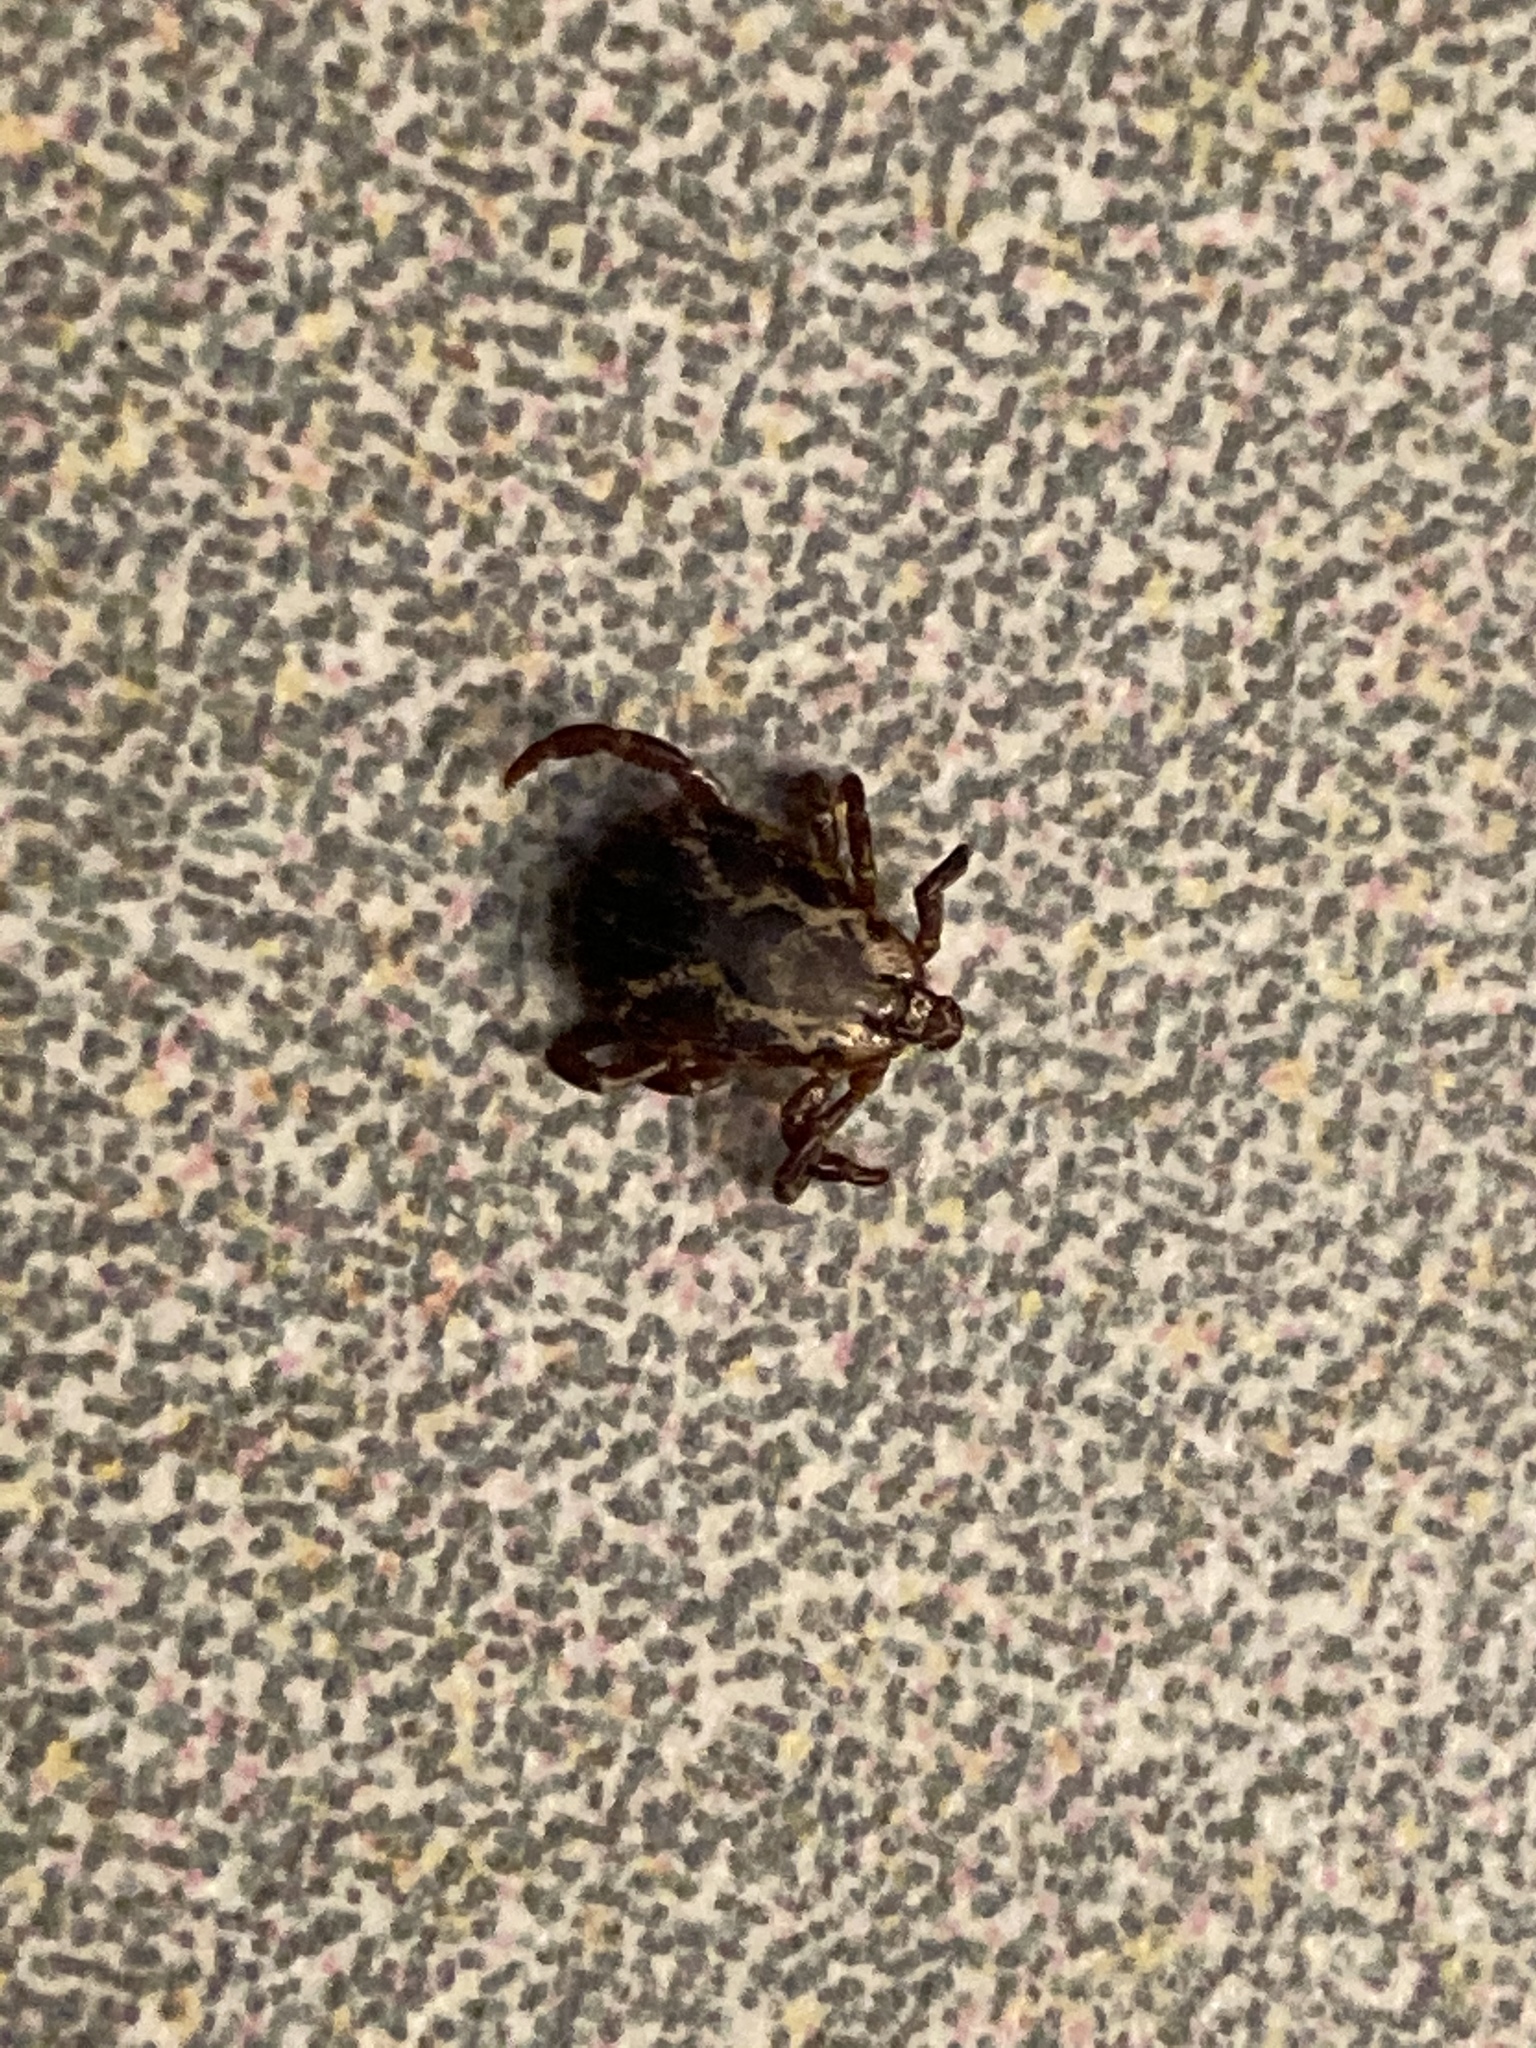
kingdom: Animalia
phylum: Arthropoda
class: Arachnida
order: Ixodida
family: Ixodidae
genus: Dermacentor
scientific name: Dermacentor variabilis
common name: American dog tick
